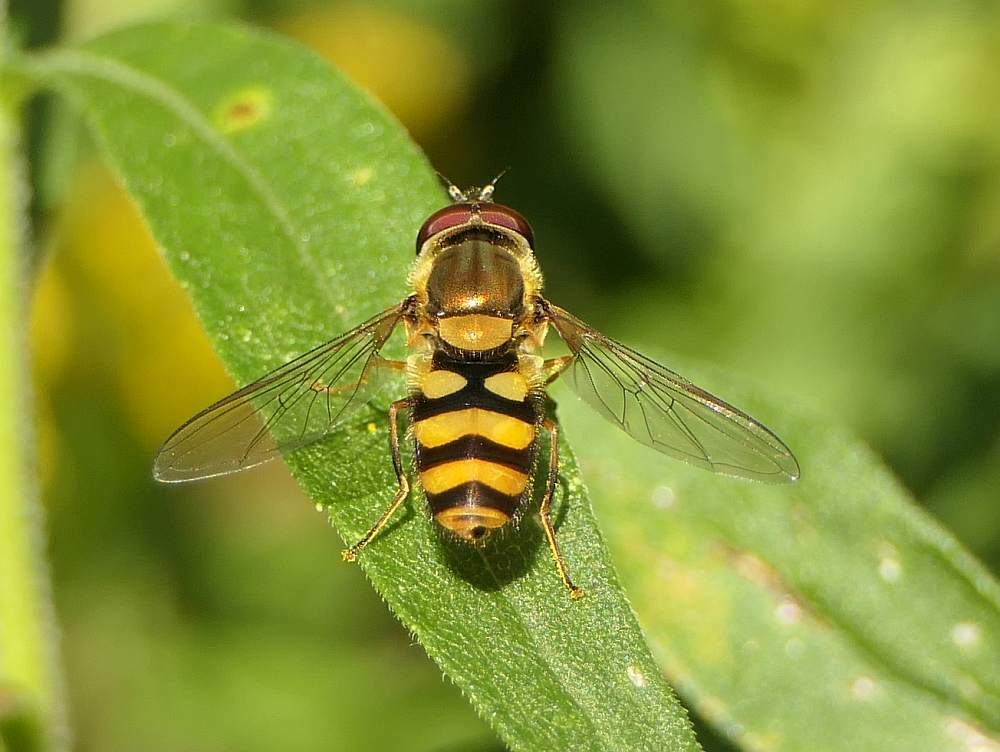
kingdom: Animalia
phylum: Arthropoda
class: Insecta
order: Diptera
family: Syrphidae
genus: Syrphus
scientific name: Syrphus
